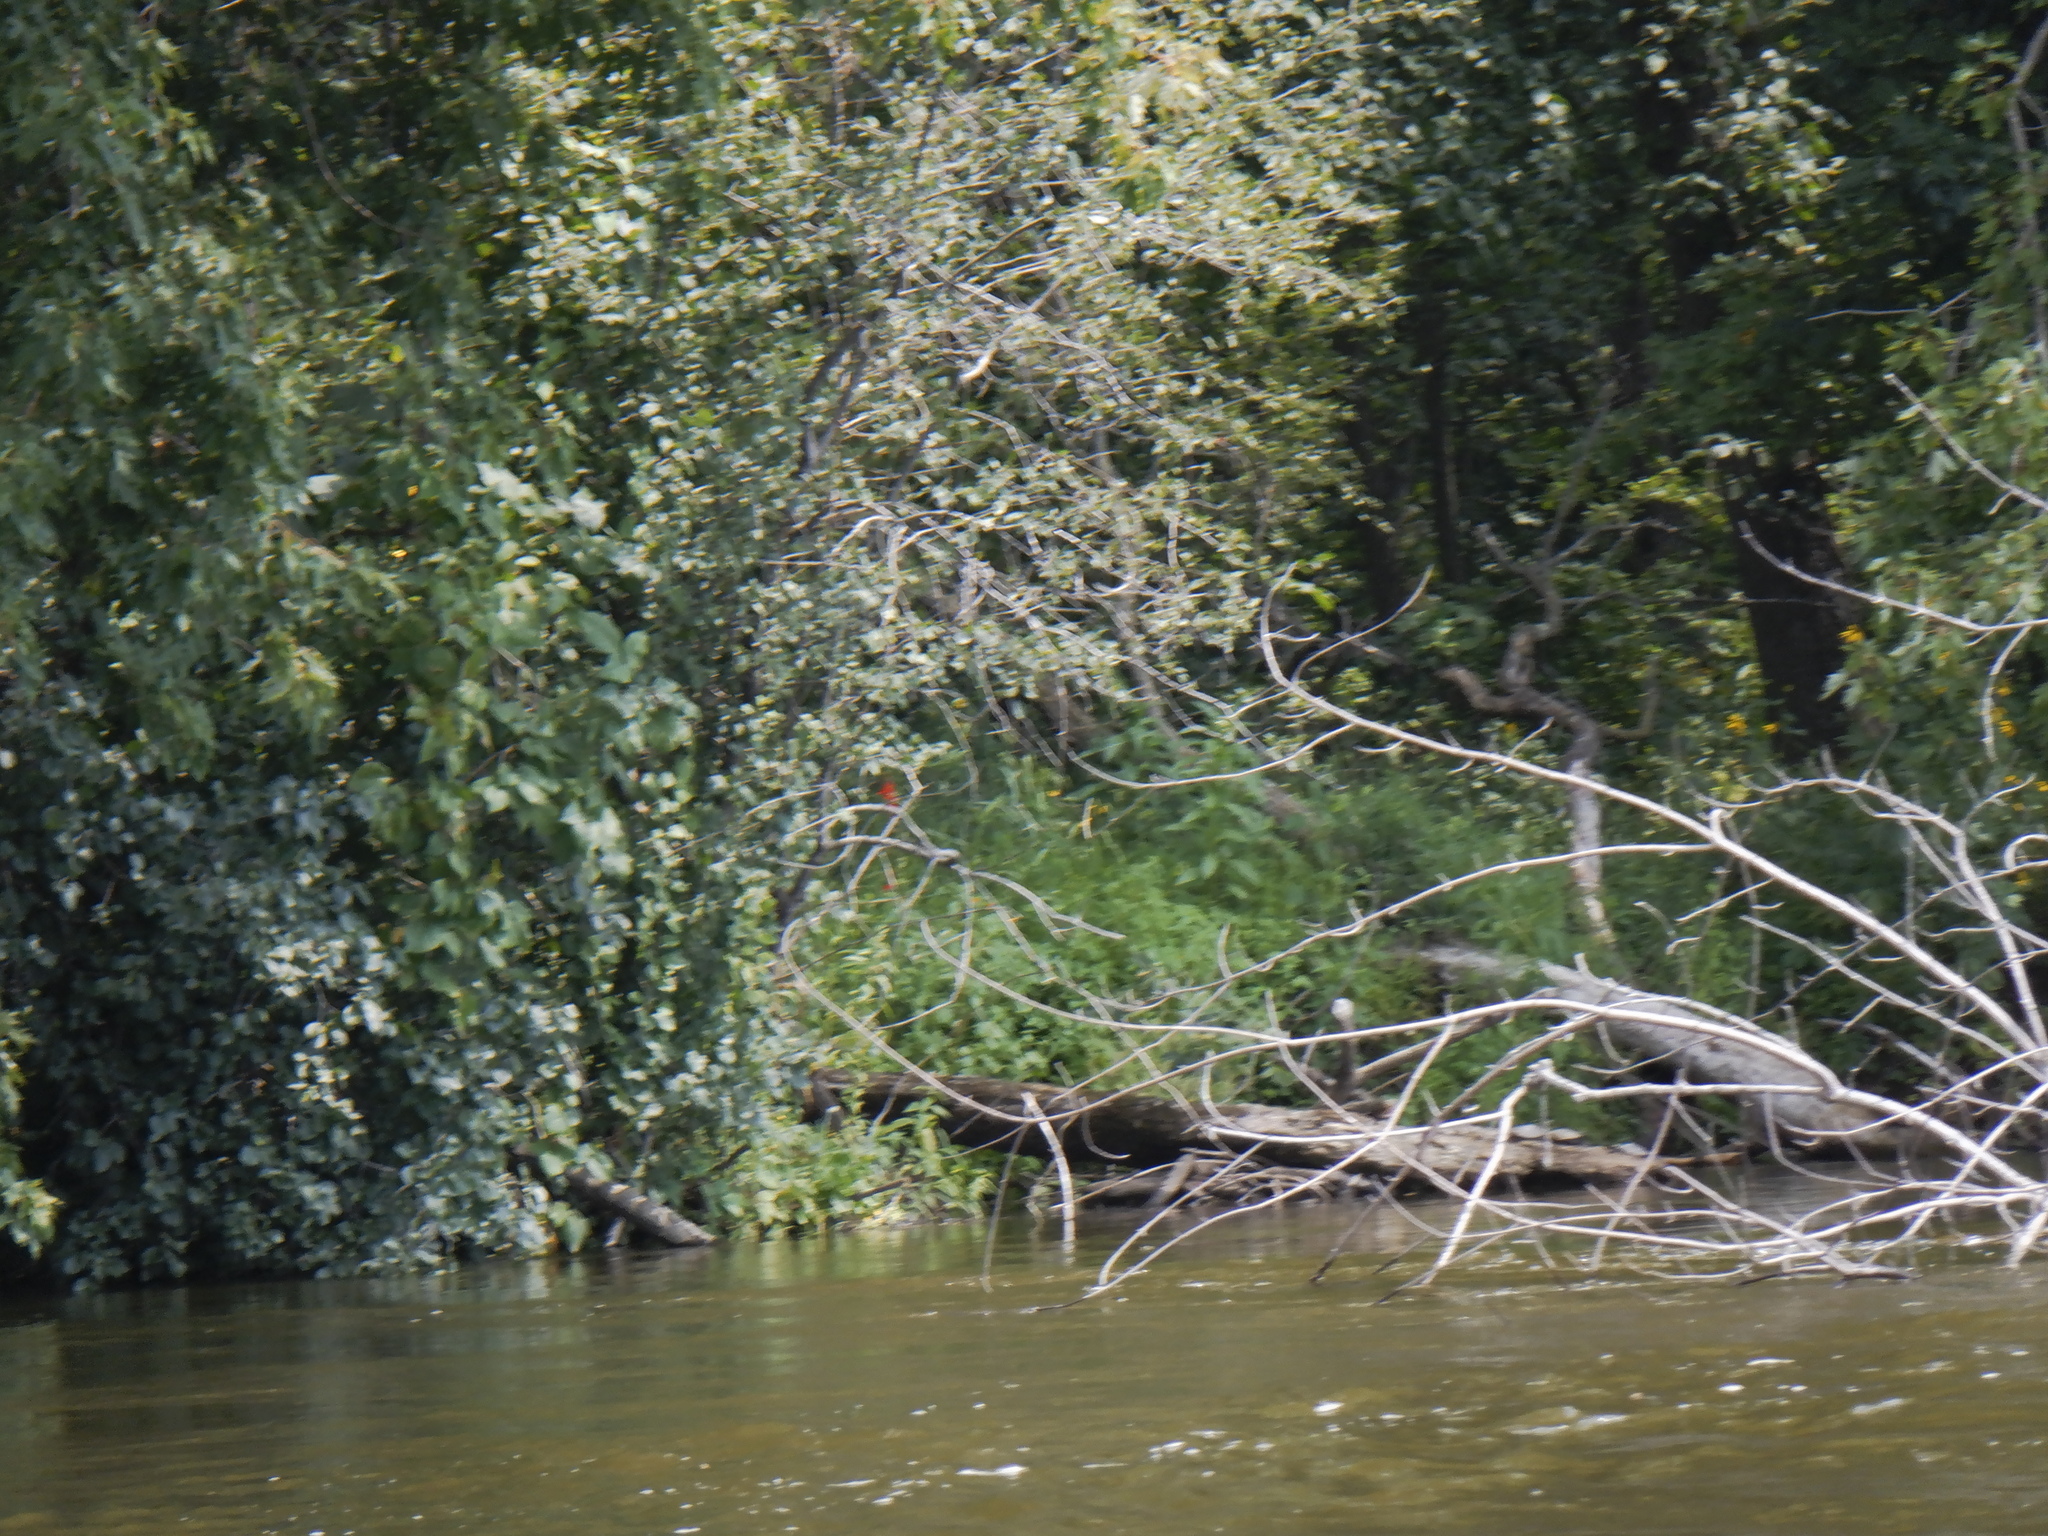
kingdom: Plantae
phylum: Tracheophyta
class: Magnoliopsida
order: Asterales
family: Campanulaceae
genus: Lobelia
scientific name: Lobelia cardinalis
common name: Cardinal flower
